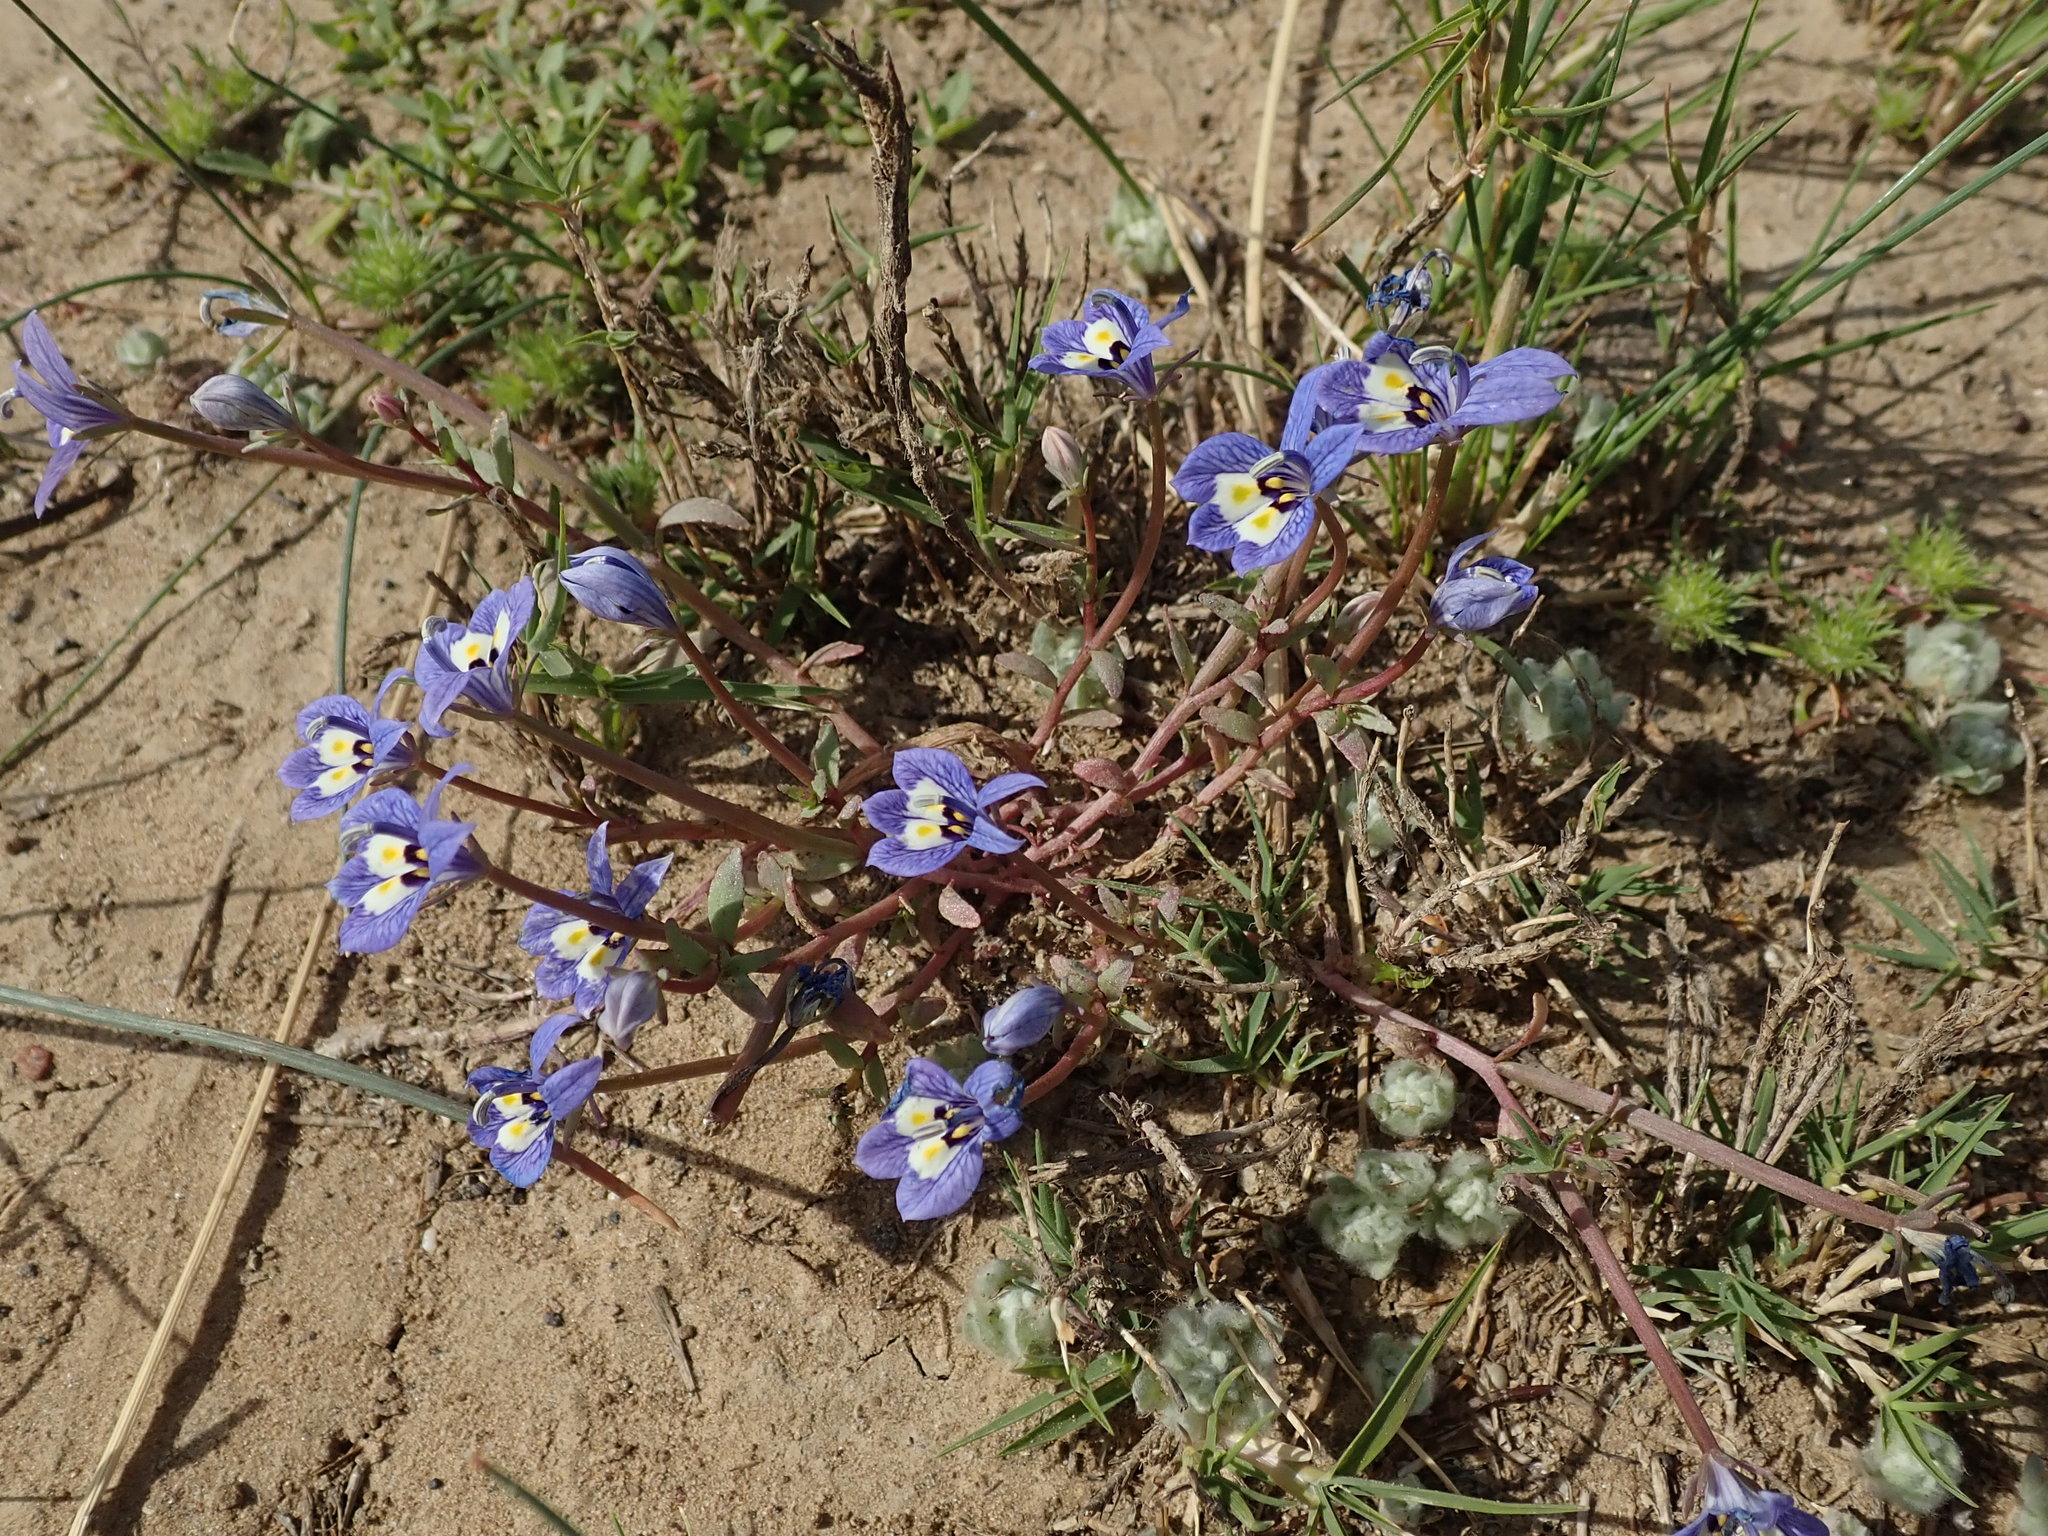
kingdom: Plantae
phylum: Tracheophyta
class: Magnoliopsida
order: Asterales
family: Campanulaceae
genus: Downingia
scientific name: Downingia insignis
